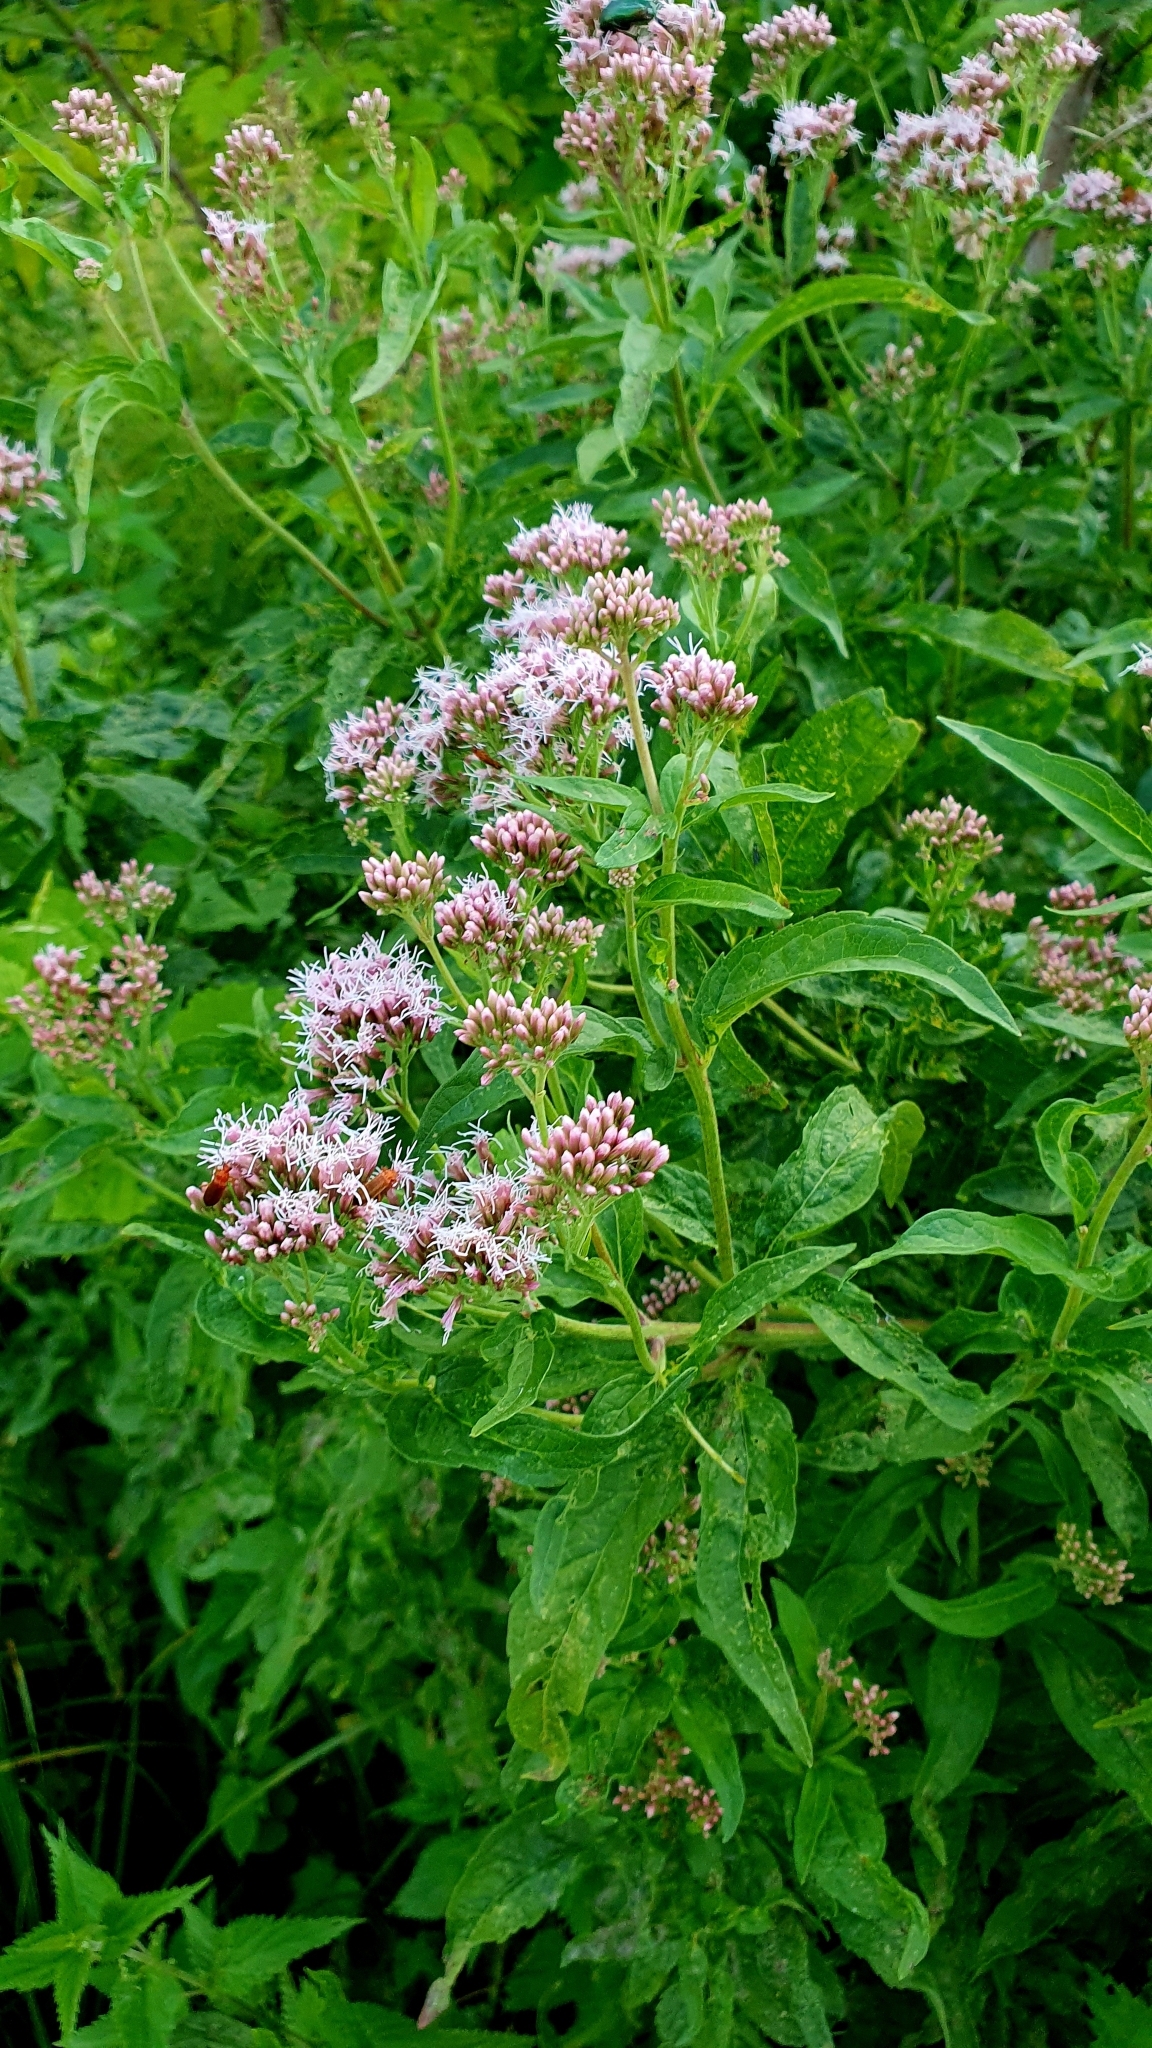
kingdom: Plantae
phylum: Tracheophyta
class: Magnoliopsida
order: Asterales
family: Asteraceae
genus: Eupatorium
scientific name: Eupatorium cannabinum
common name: Hemp-agrimony
